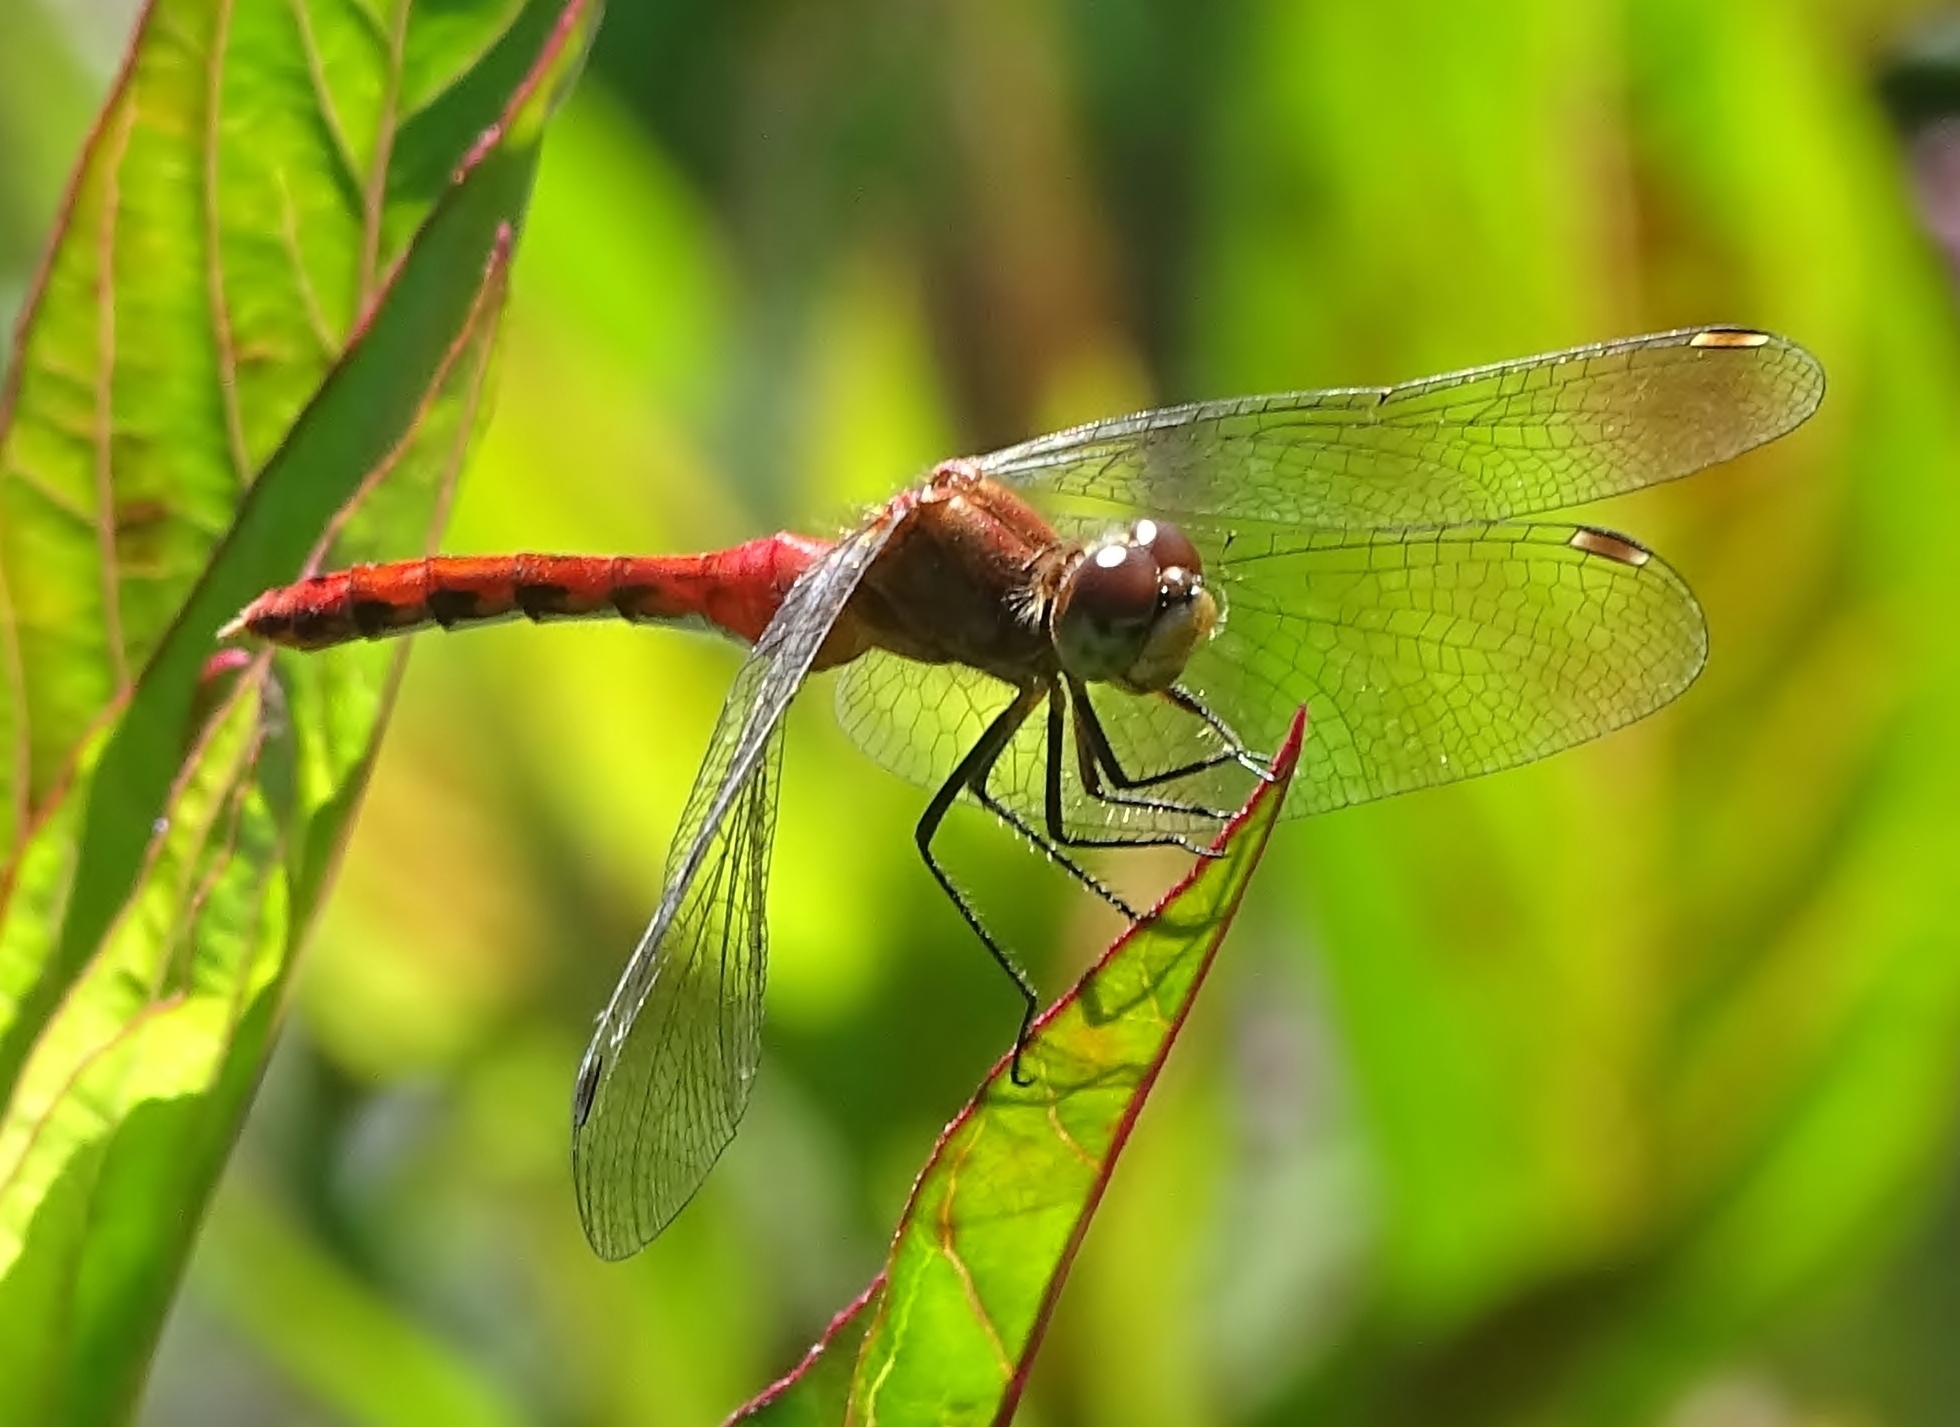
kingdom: Animalia
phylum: Arthropoda
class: Insecta
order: Odonata
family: Libellulidae
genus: Sympetrum
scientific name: Sympetrum
